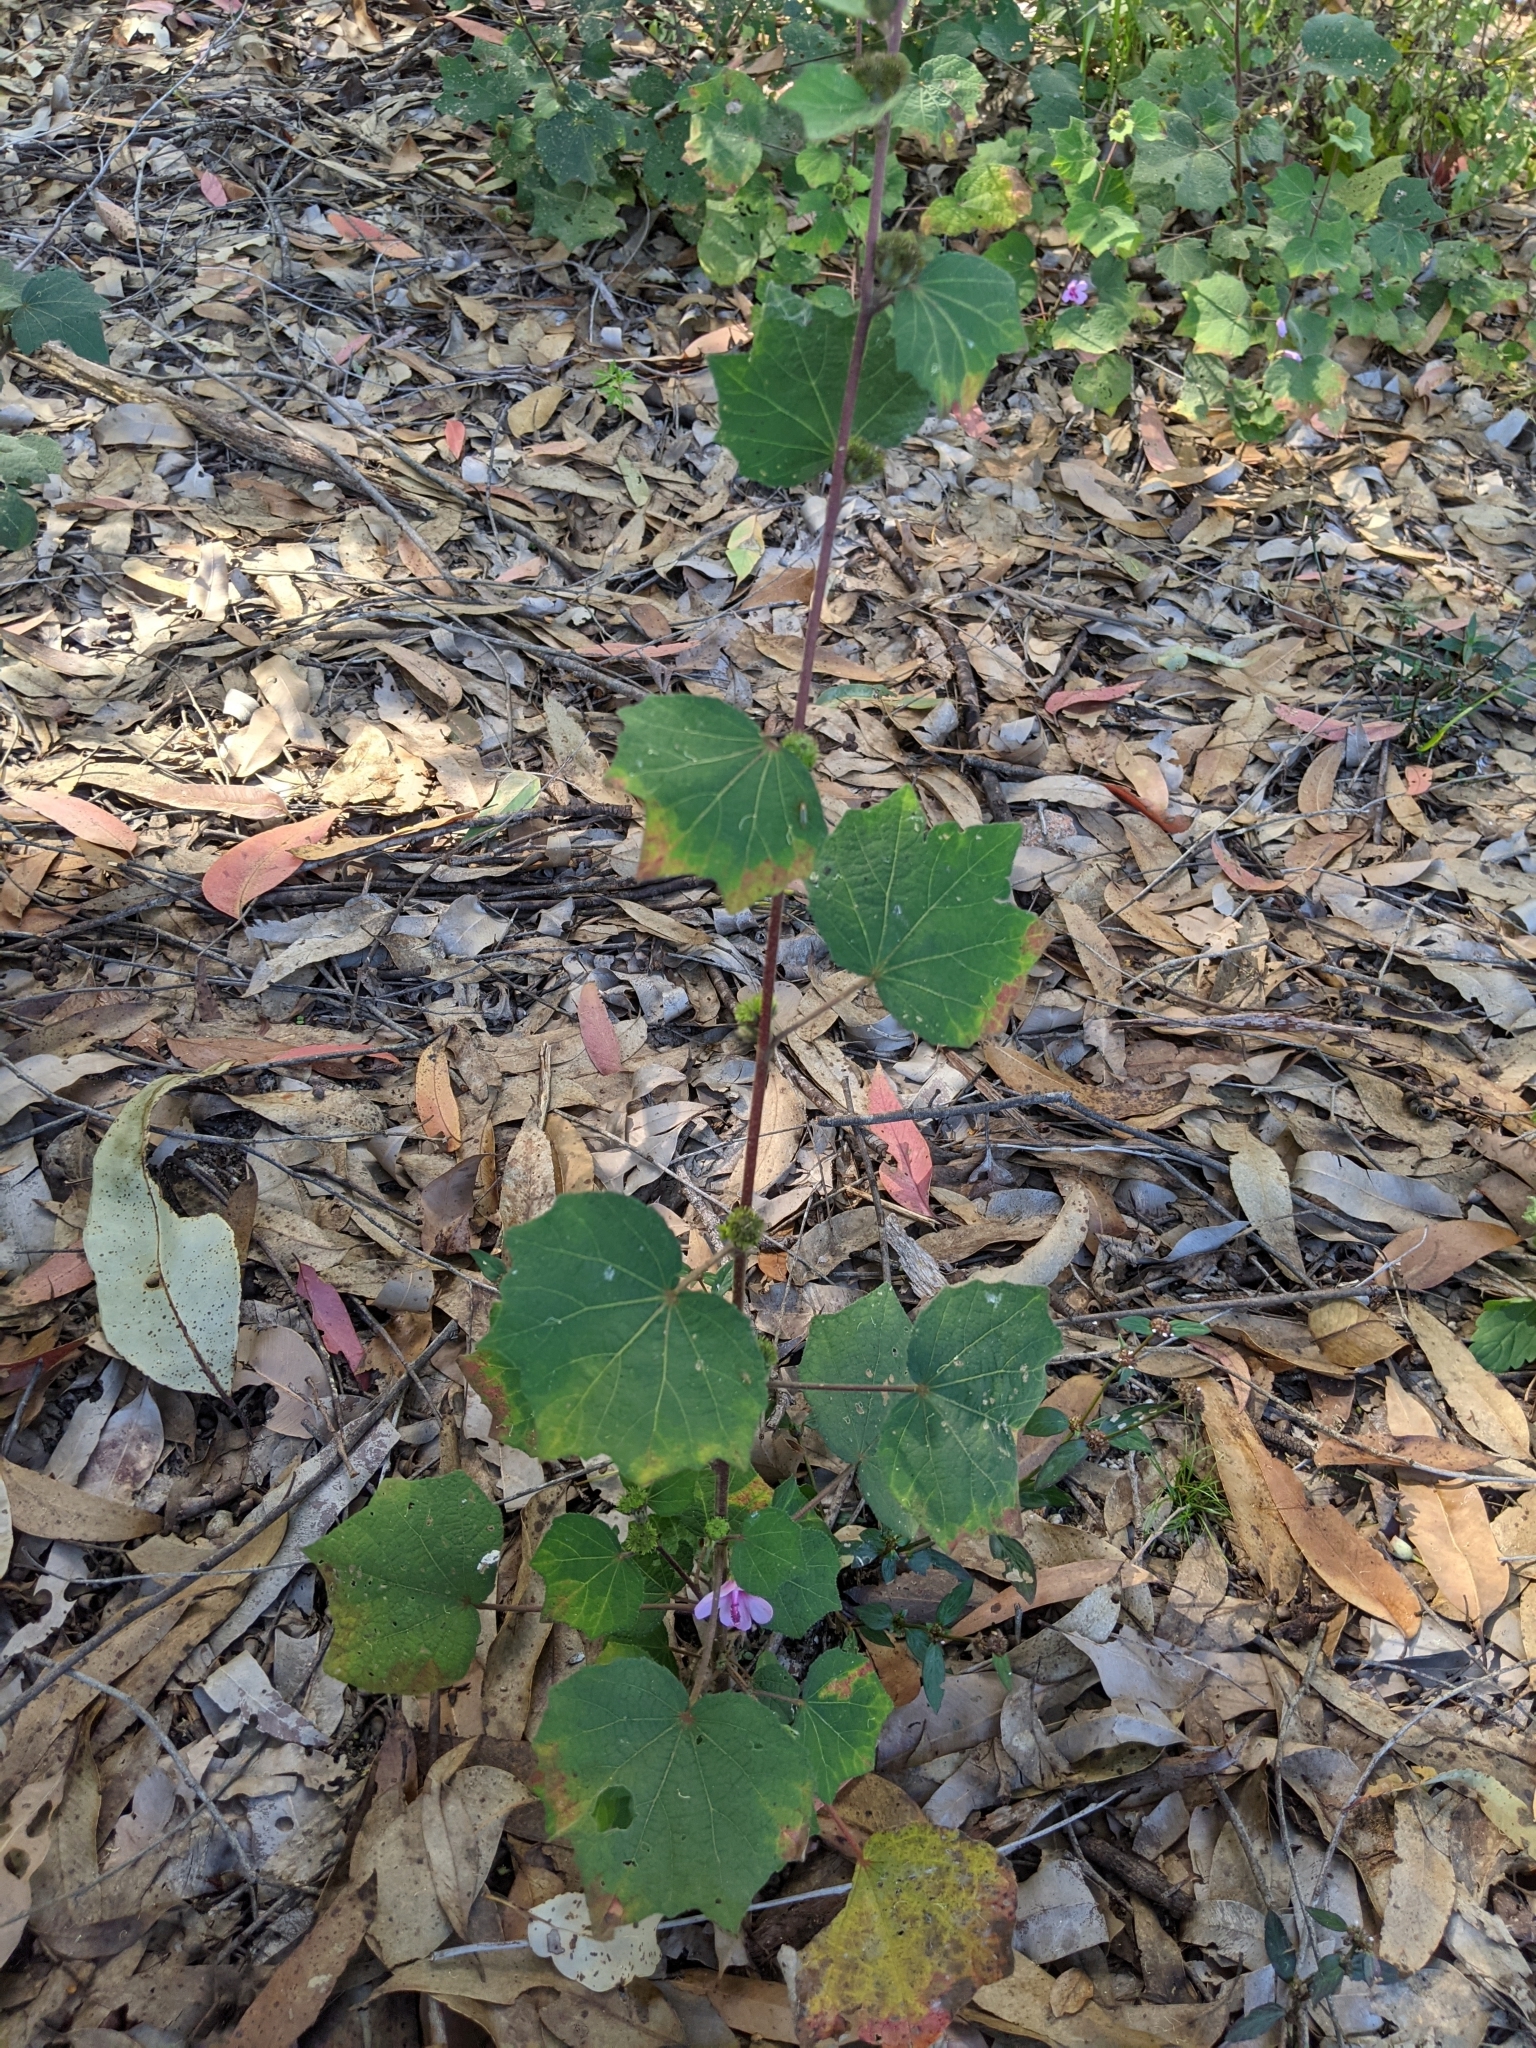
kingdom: Plantae
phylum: Tracheophyta
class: Magnoliopsida
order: Malvales
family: Malvaceae
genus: Urena
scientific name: Urena lobata
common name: Caesarweed
